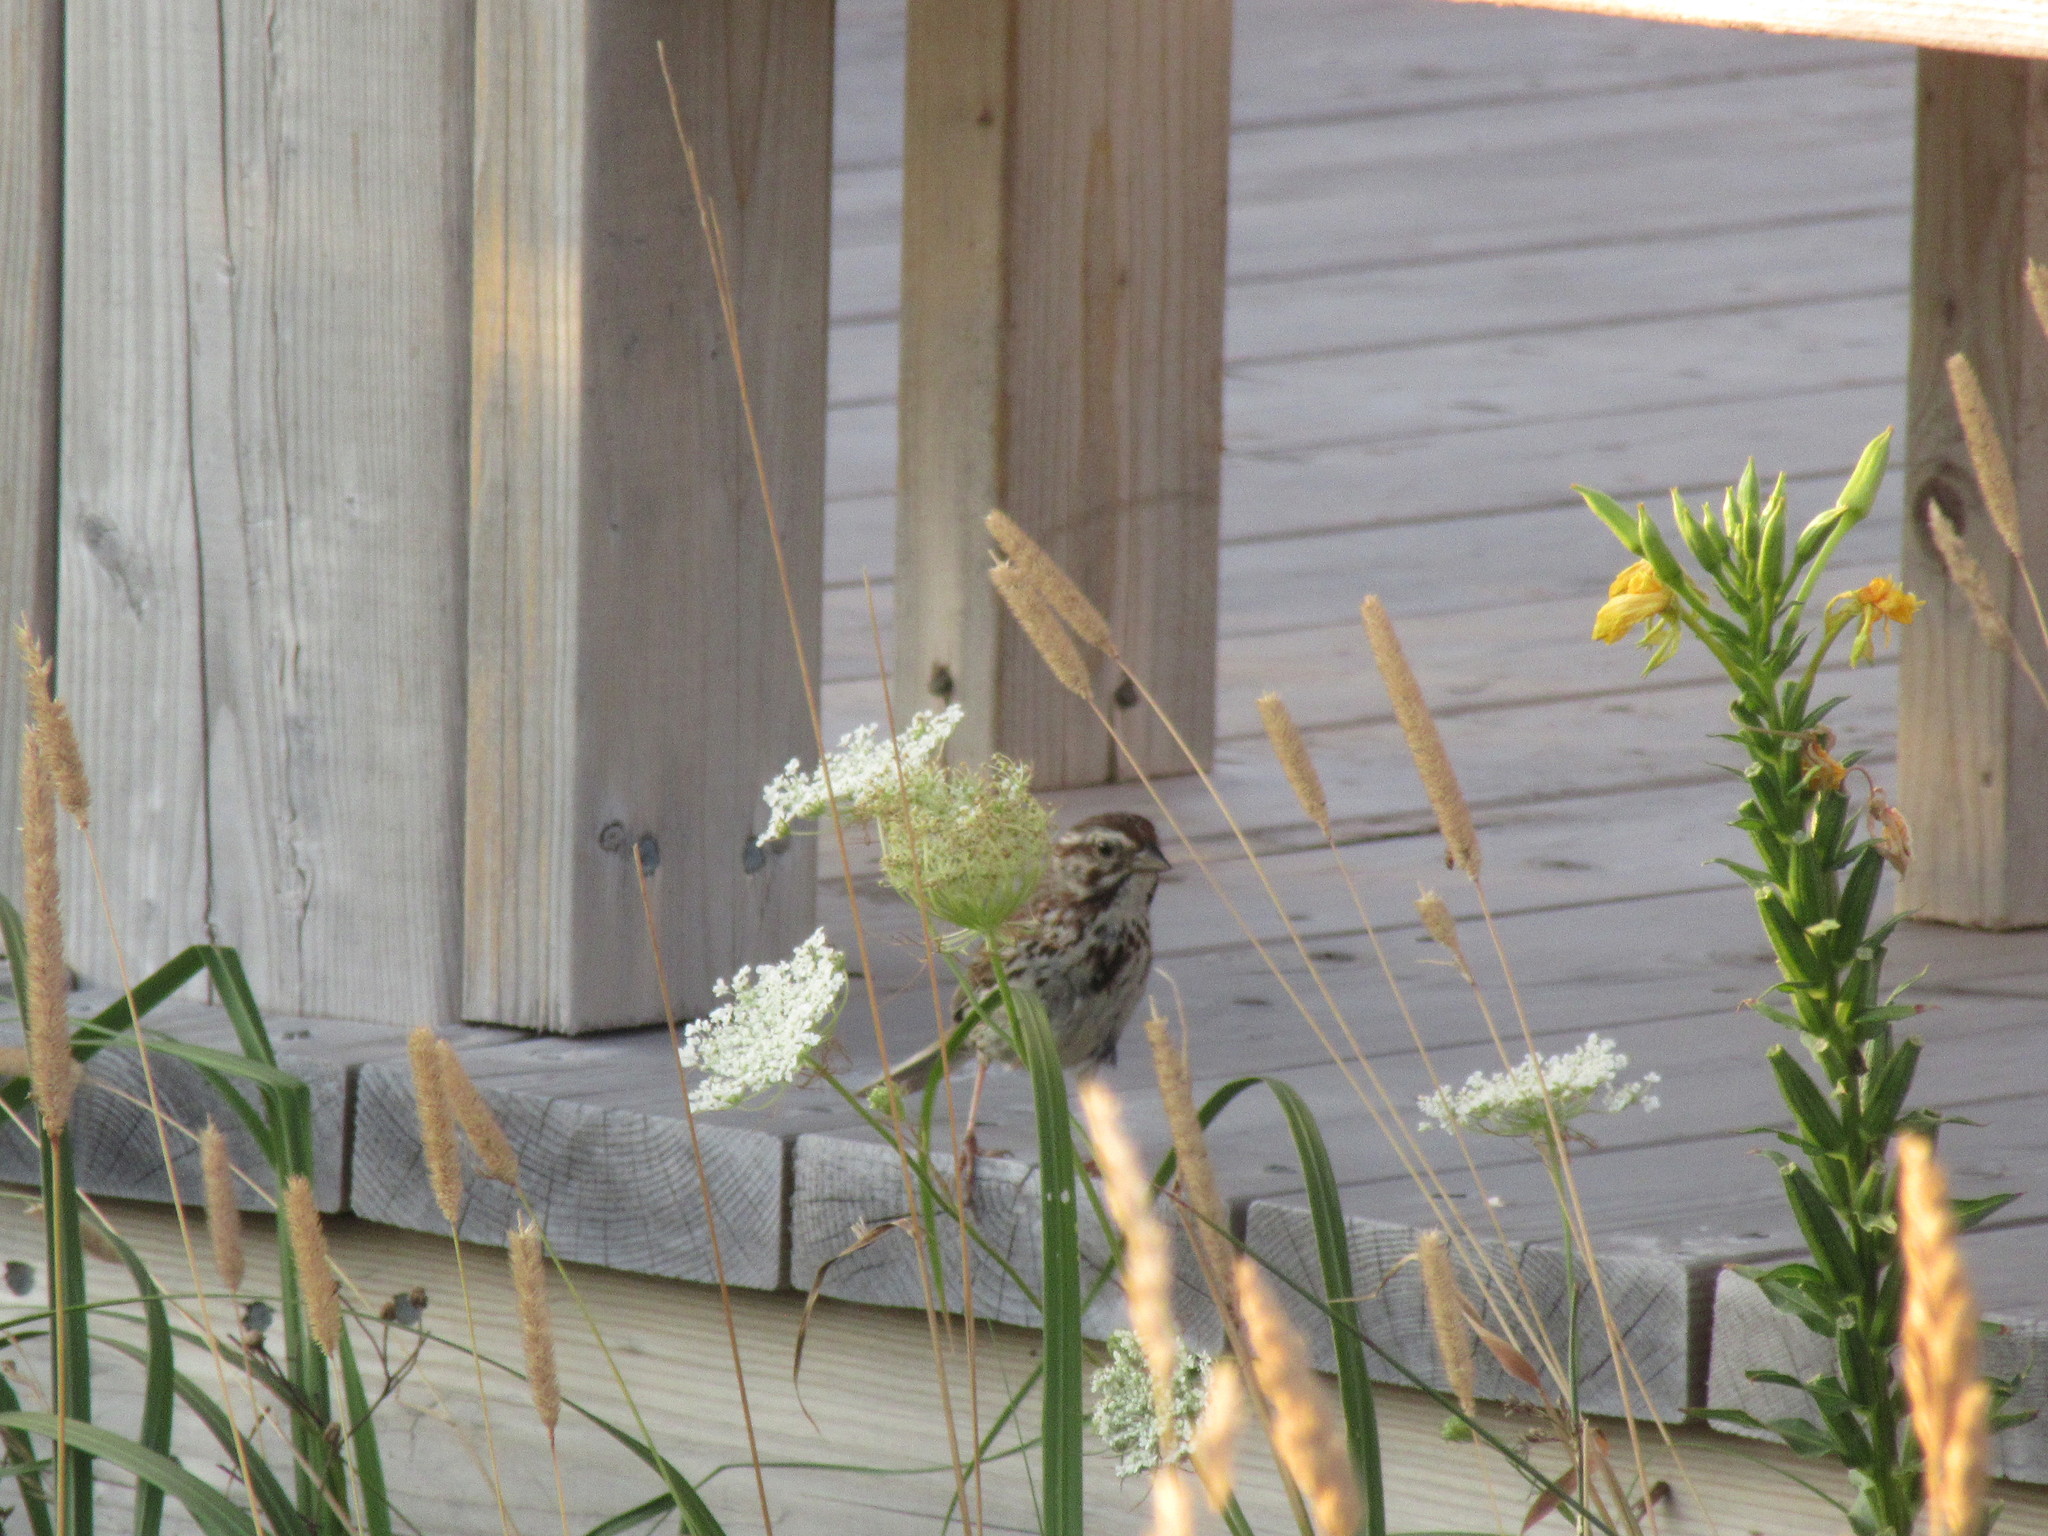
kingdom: Animalia
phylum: Chordata
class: Aves
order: Passeriformes
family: Passerellidae
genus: Melospiza
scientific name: Melospiza melodia
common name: Song sparrow
